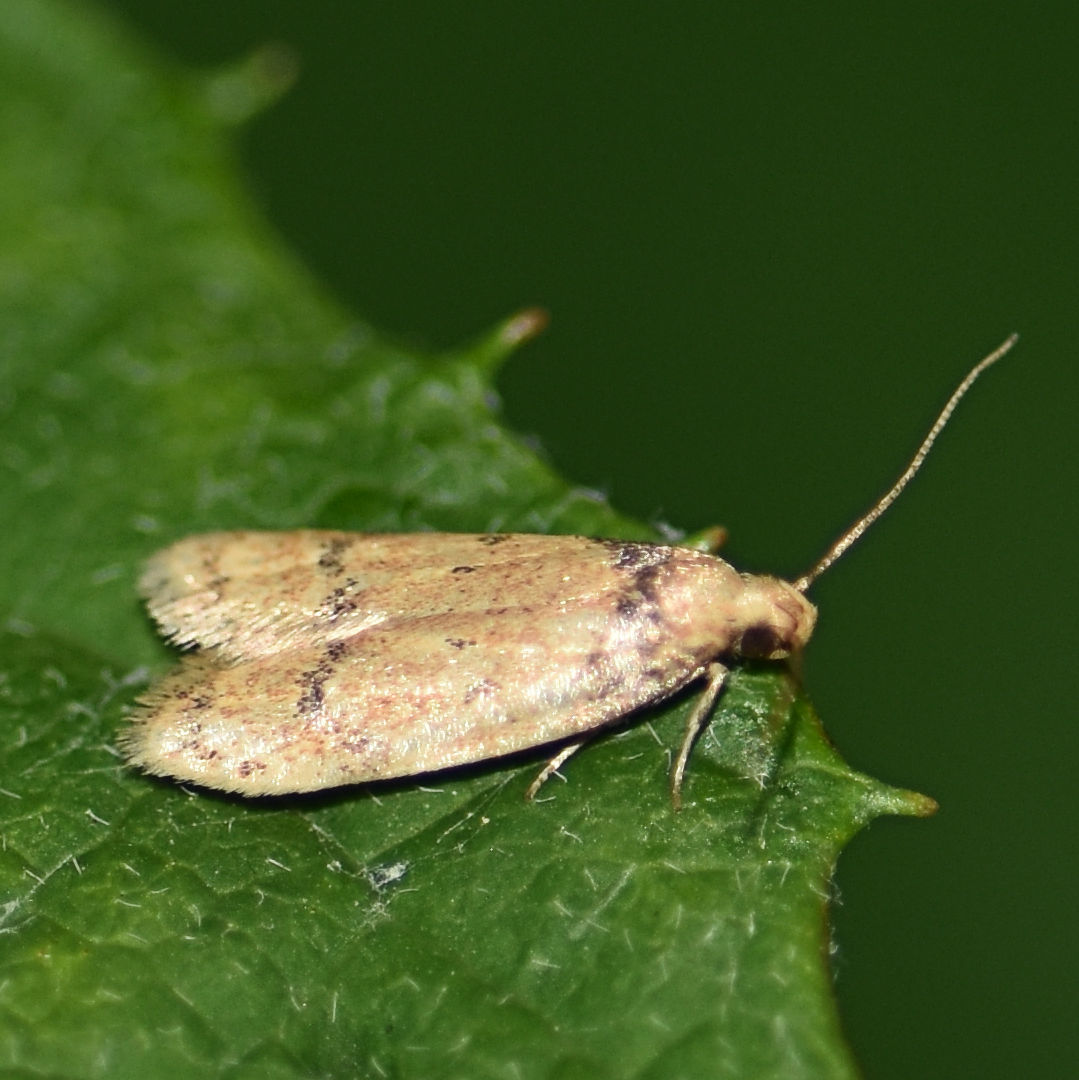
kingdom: Animalia
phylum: Arthropoda
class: Insecta
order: Lepidoptera
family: Autostichidae
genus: Gerdana
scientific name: Gerdana caritella
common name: Gerdana moth
